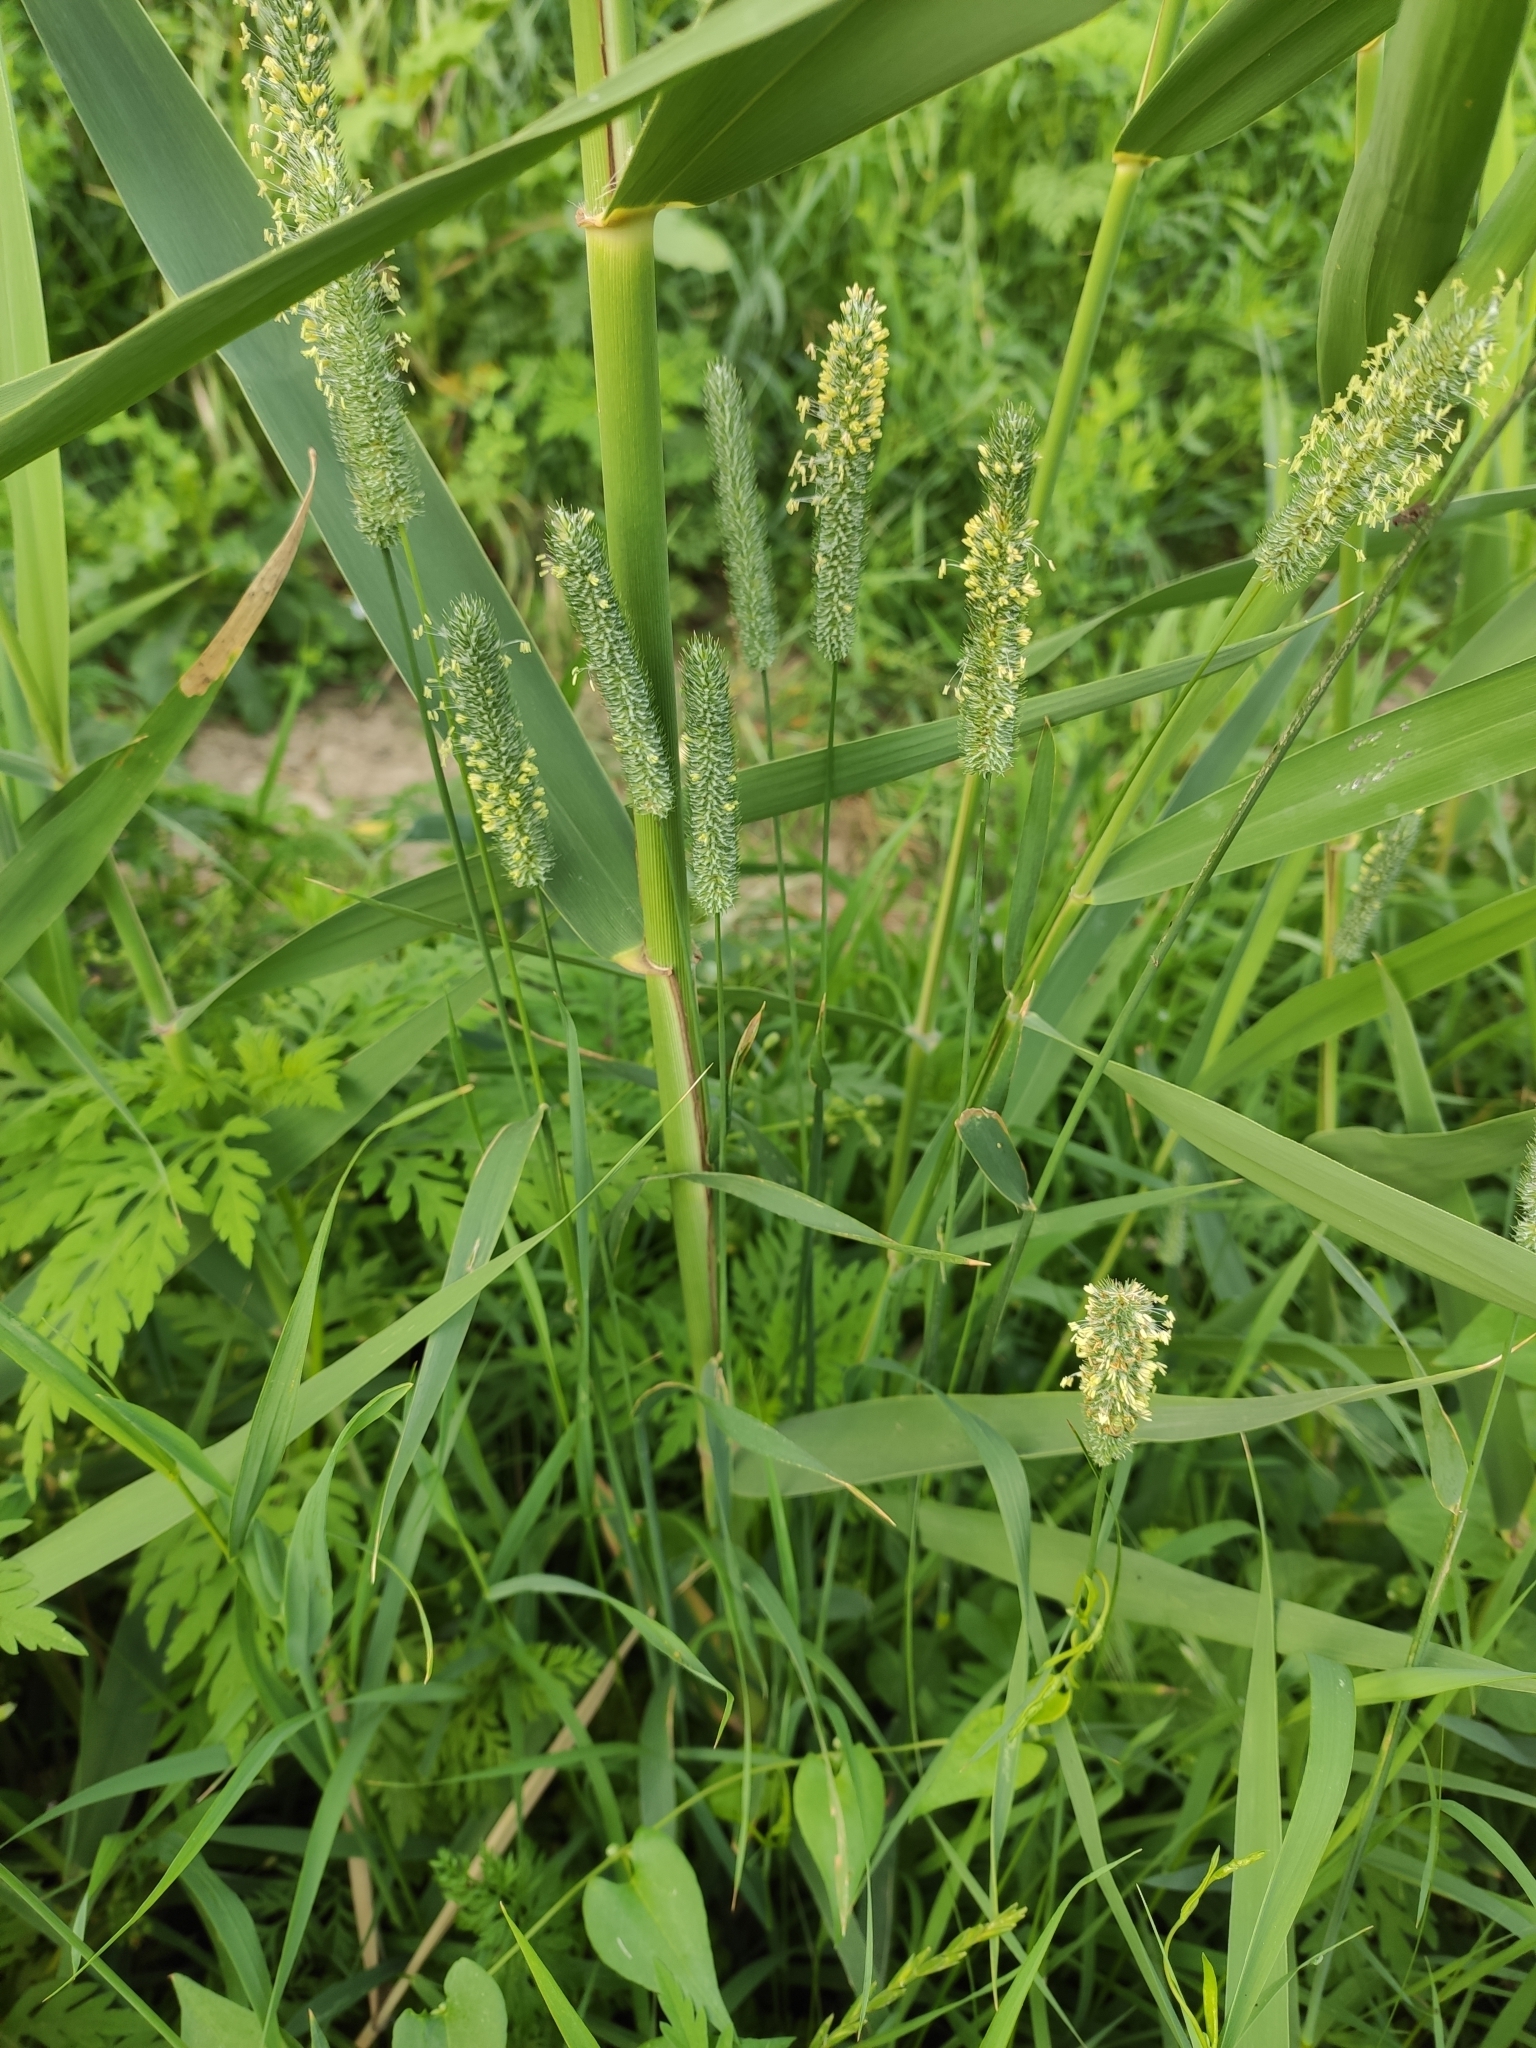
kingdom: Plantae
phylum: Tracheophyta
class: Liliopsida
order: Poales
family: Poaceae
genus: Phleum
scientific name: Phleum pratense
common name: Timothy grass
